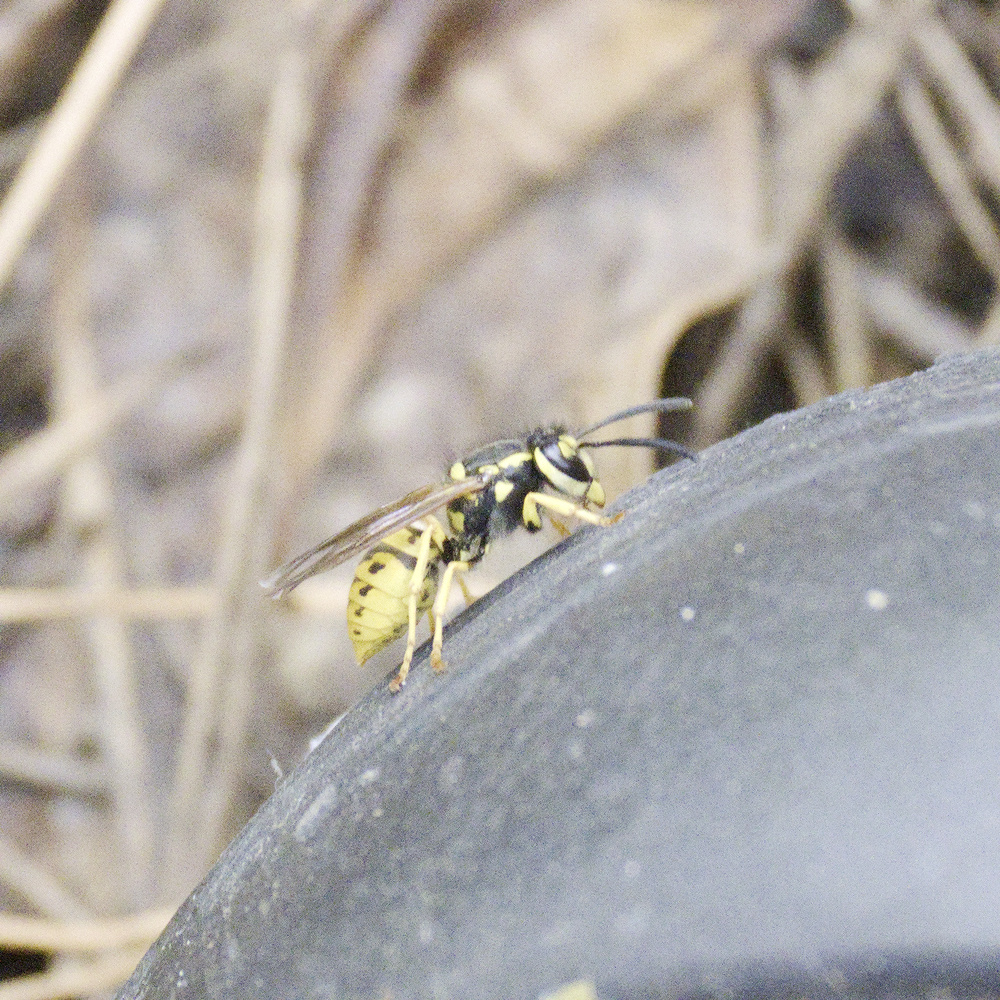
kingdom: Animalia
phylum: Arthropoda
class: Insecta
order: Hymenoptera
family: Vespidae
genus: Vespula
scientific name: Vespula germanica
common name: German wasp
